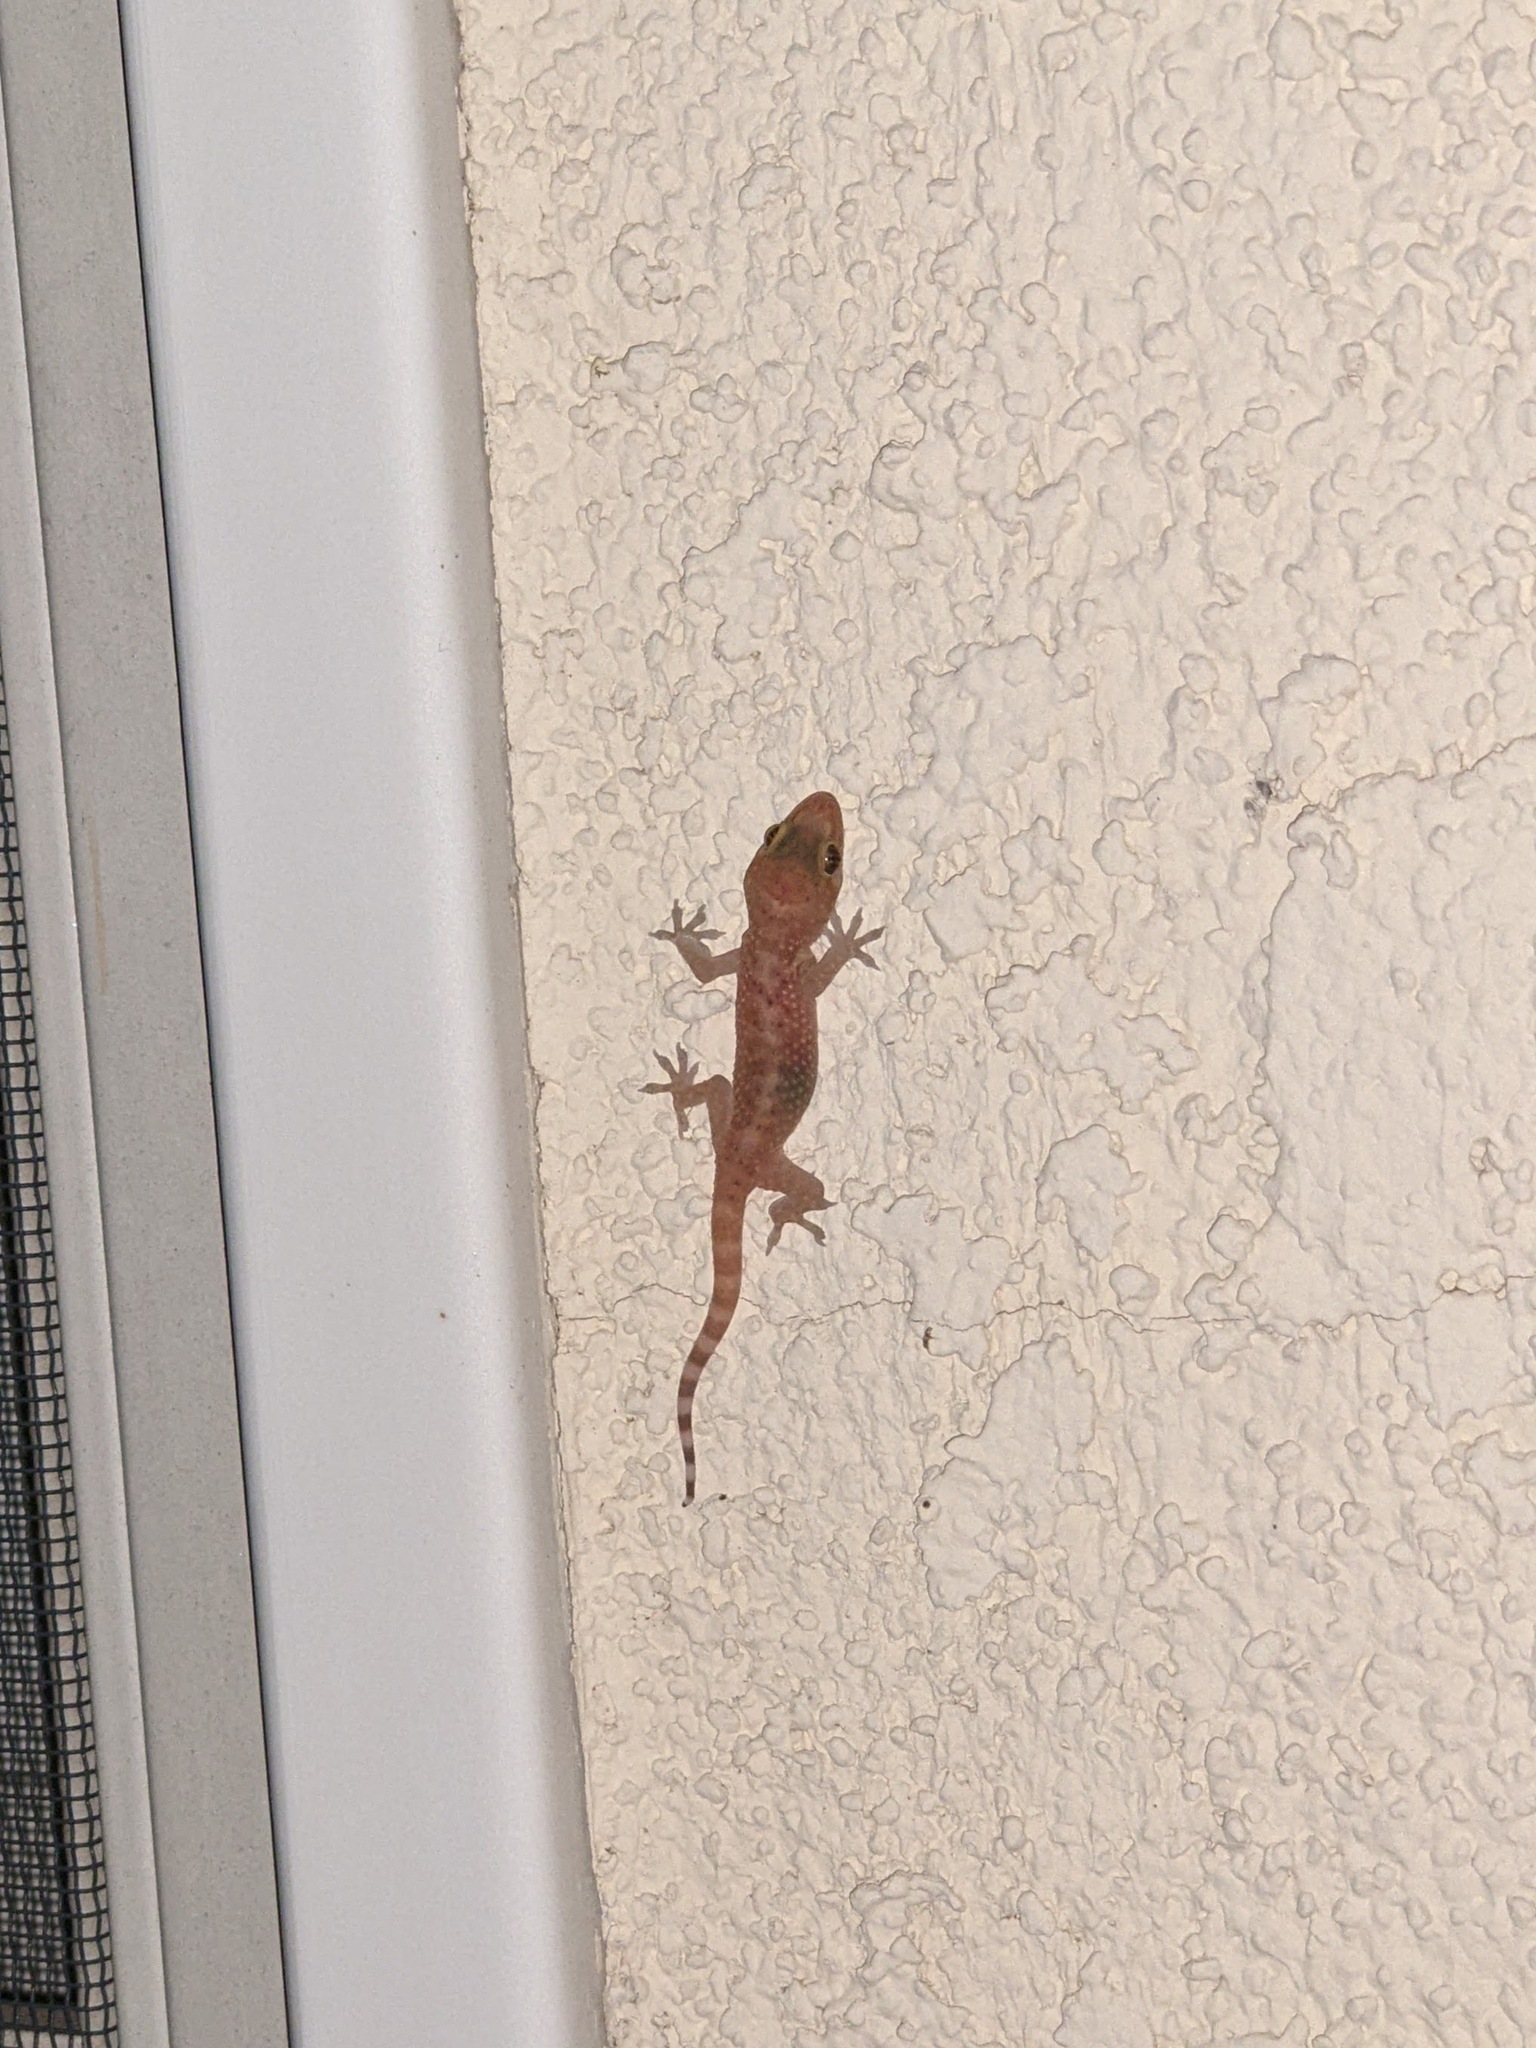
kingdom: Animalia
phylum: Chordata
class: Squamata
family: Gekkonidae
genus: Hemidactylus
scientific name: Hemidactylus turcicus
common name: Turkish gecko
